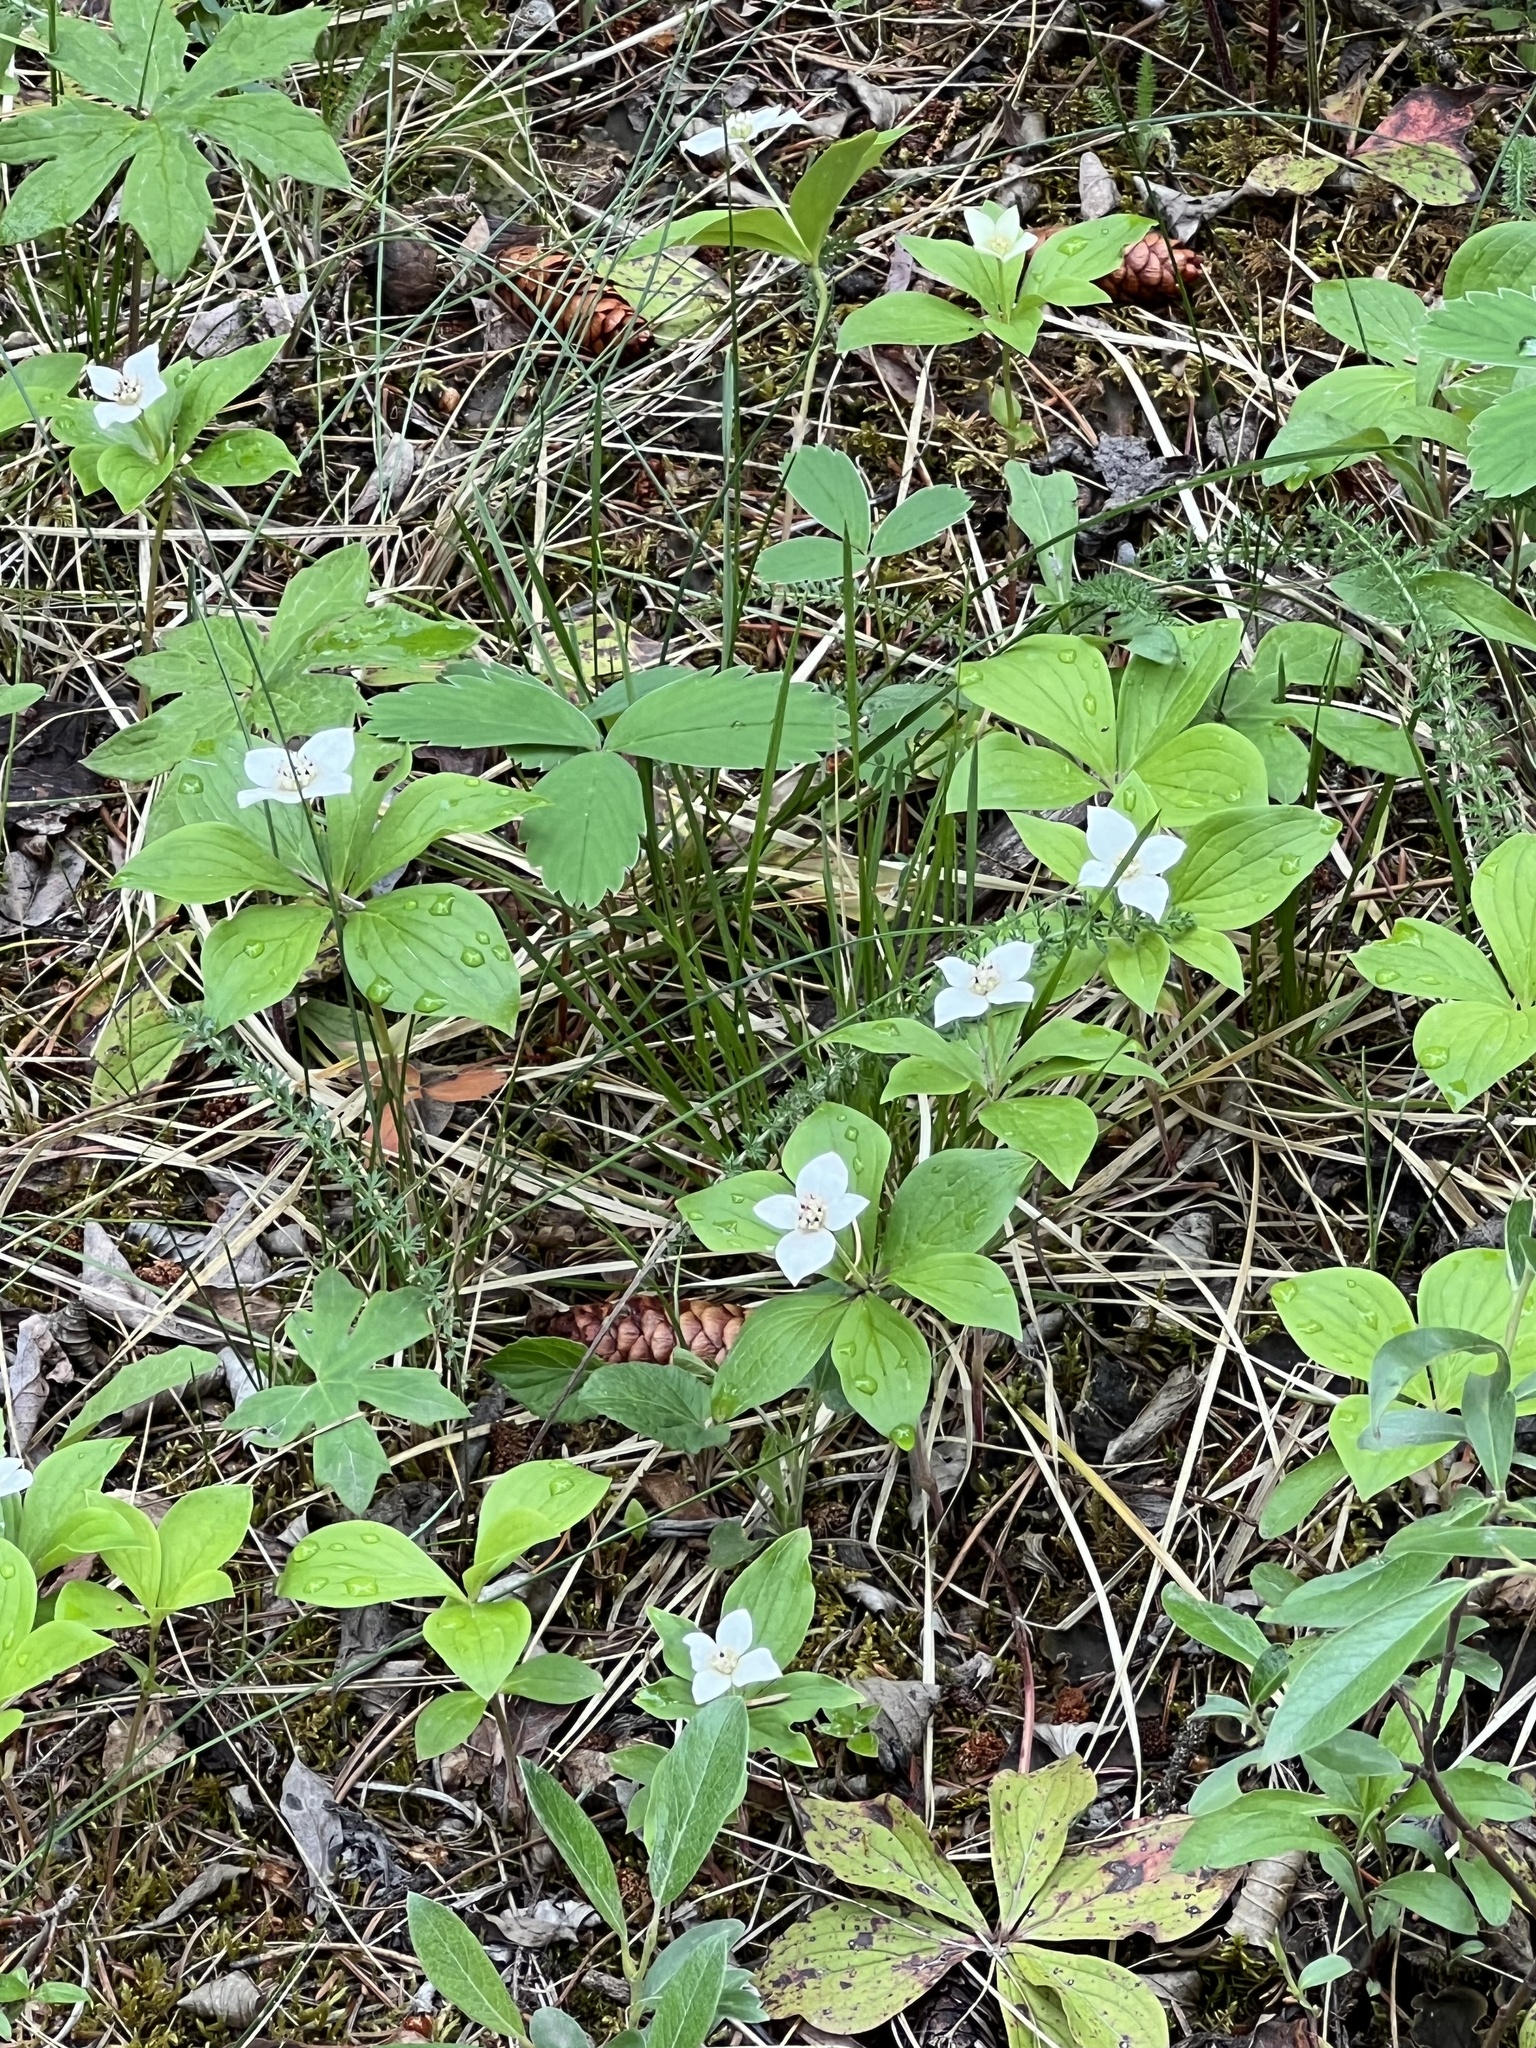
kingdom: Plantae
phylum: Tracheophyta
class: Magnoliopsida
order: Cornales
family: Cornaceae
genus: Cornus
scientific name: Cornus canadensis
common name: Creeping dogwood
